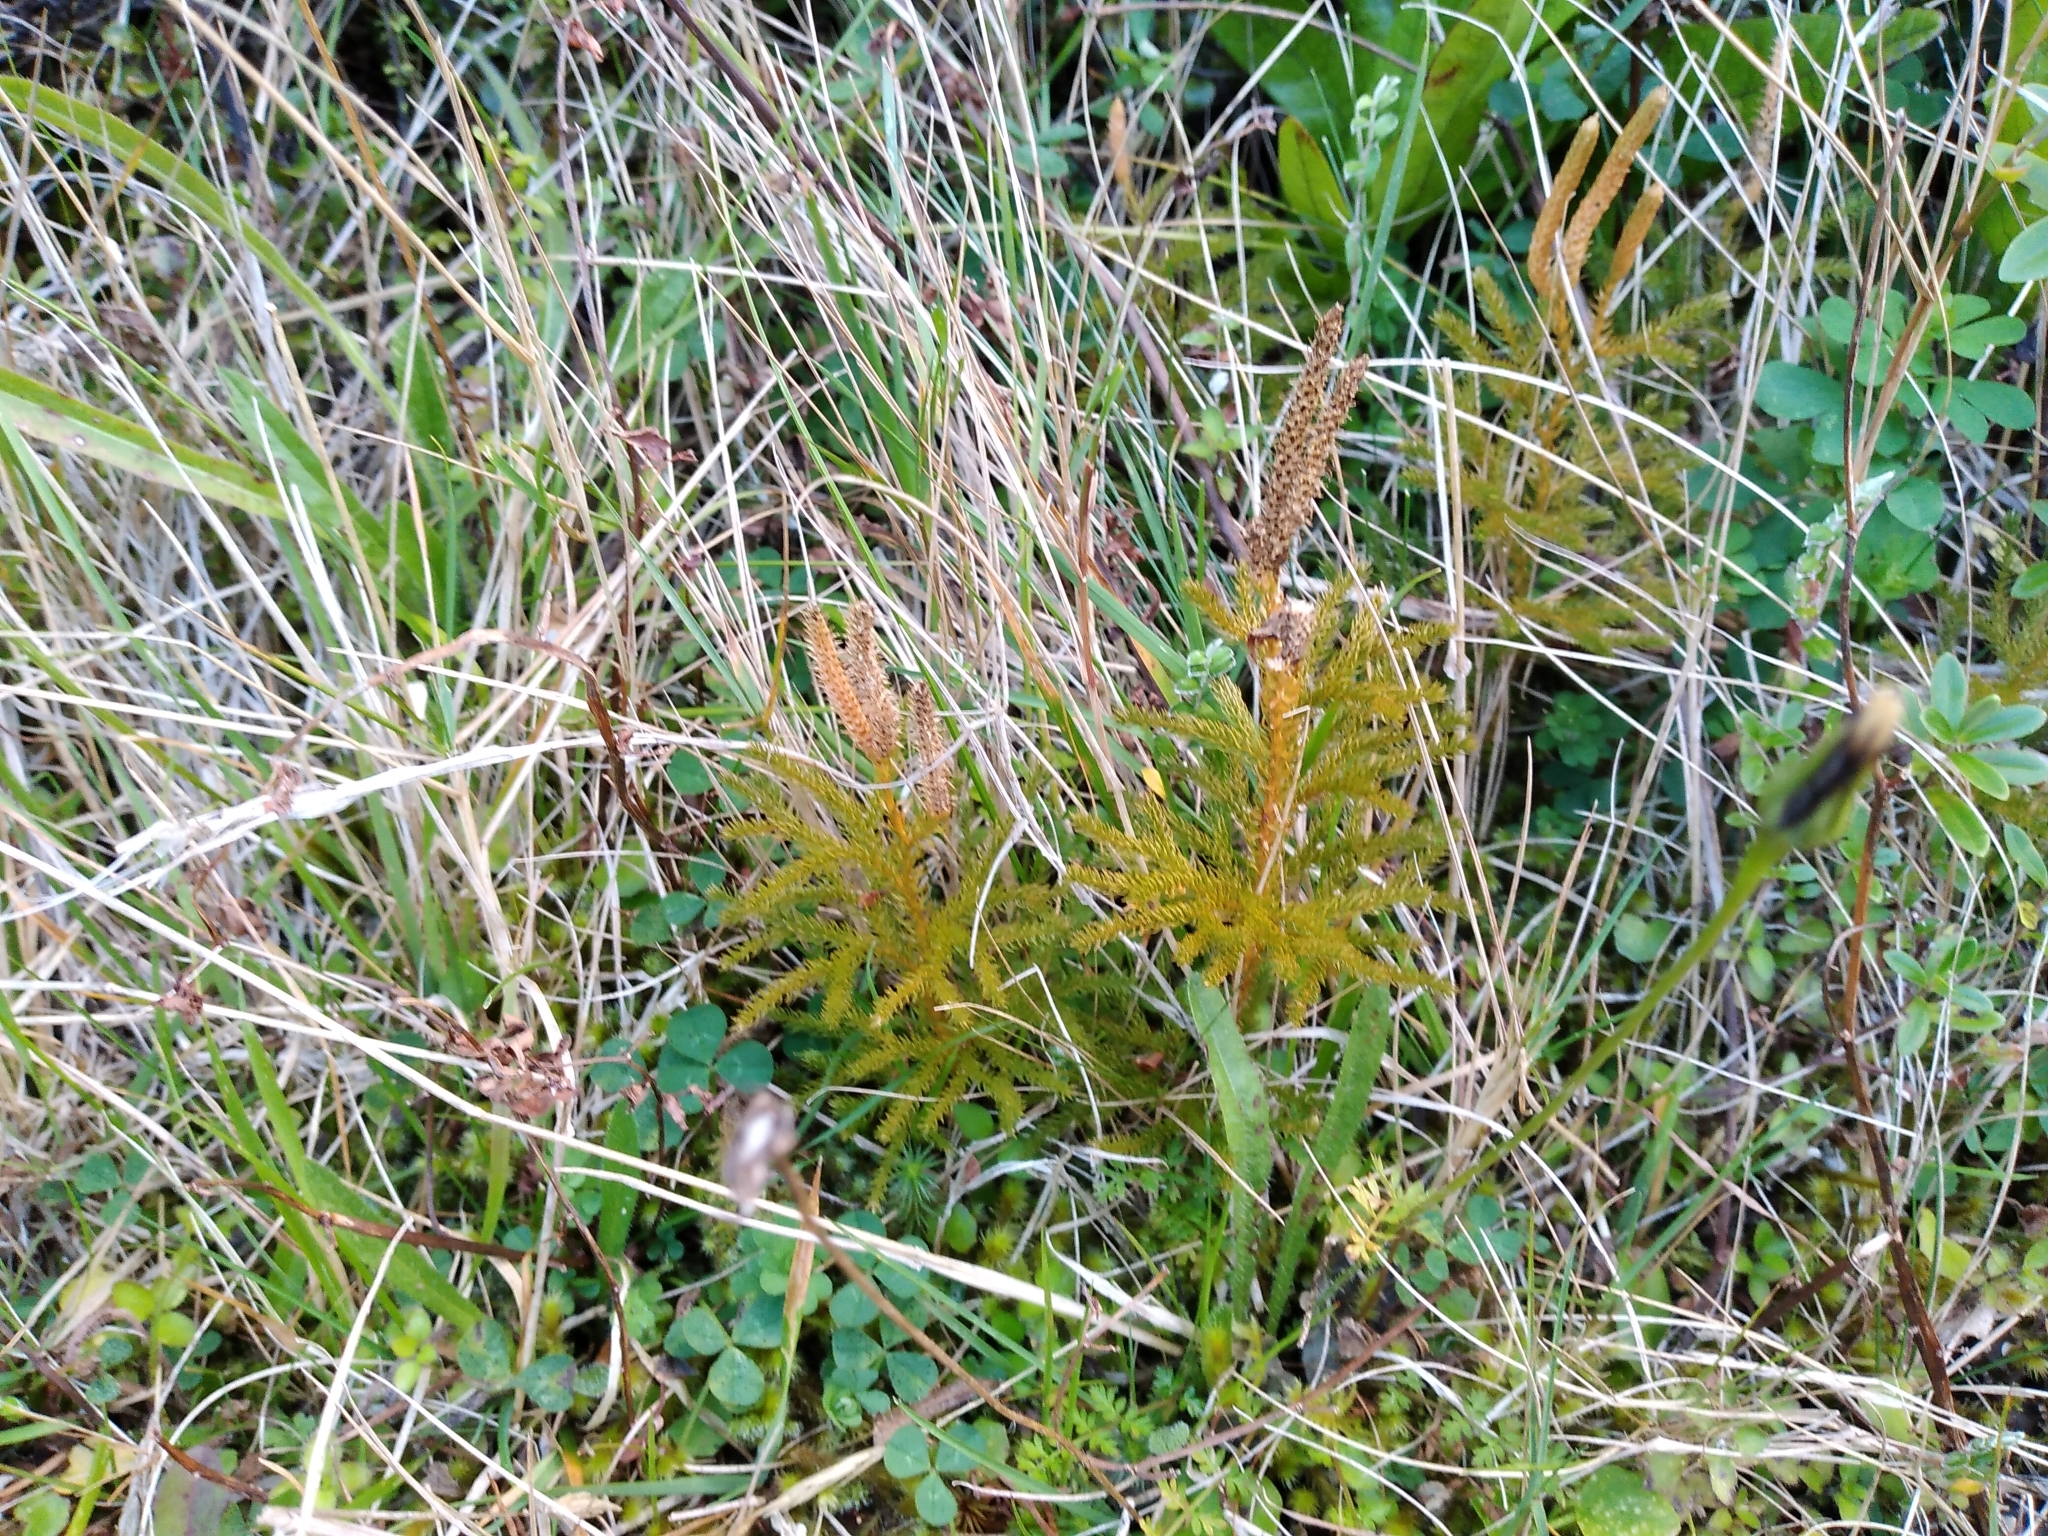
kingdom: Plantae
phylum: Tracheophyta
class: Lycopodiopsida
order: Lycopodiales
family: Lycopodiaceae
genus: Austrolycopodium
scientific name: Austrolycopodium fastigiatum
